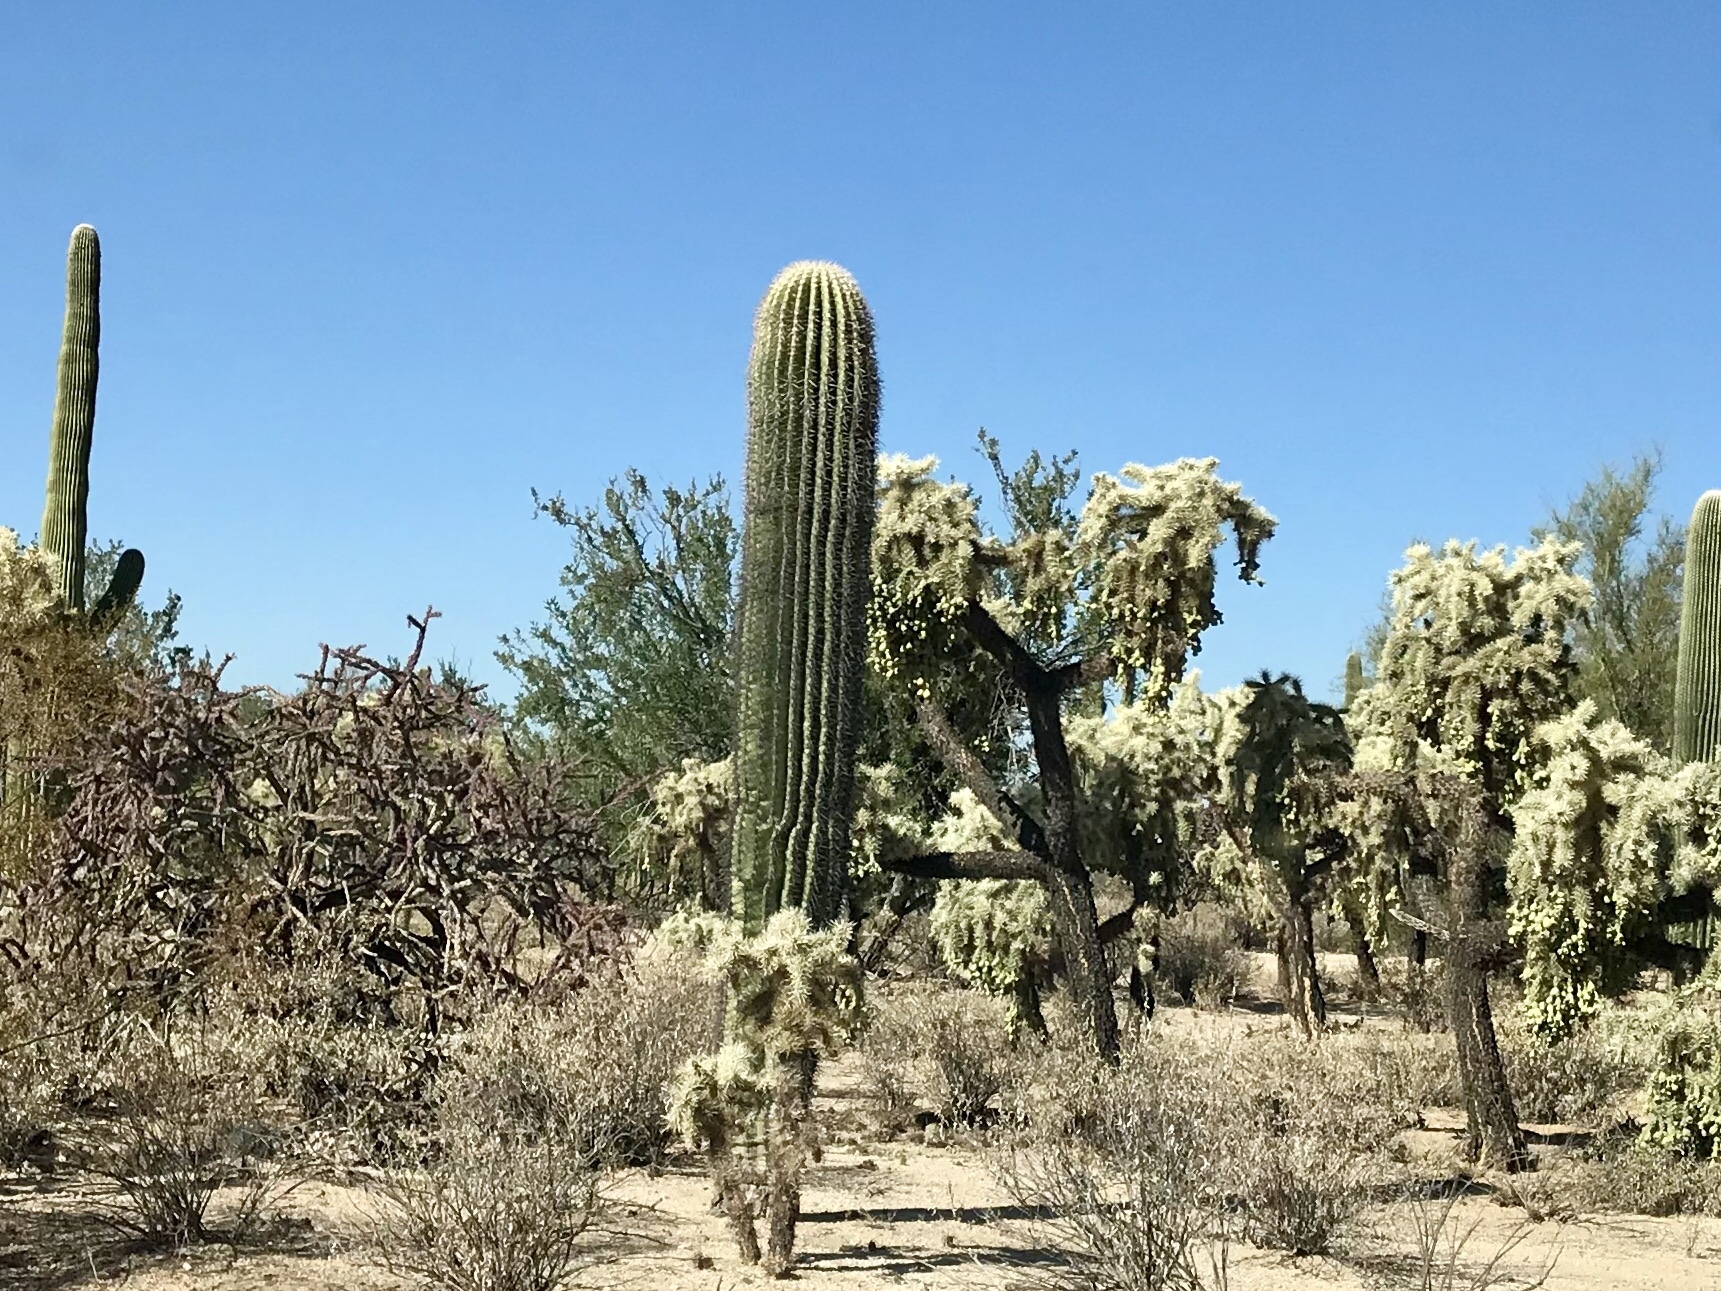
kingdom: Plantae
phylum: Tracheophyta
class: Magnoliopsida
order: Caryophyllales
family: Cactaceae
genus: Carnegiea
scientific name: Carnegiea gigantea
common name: Saguaro
